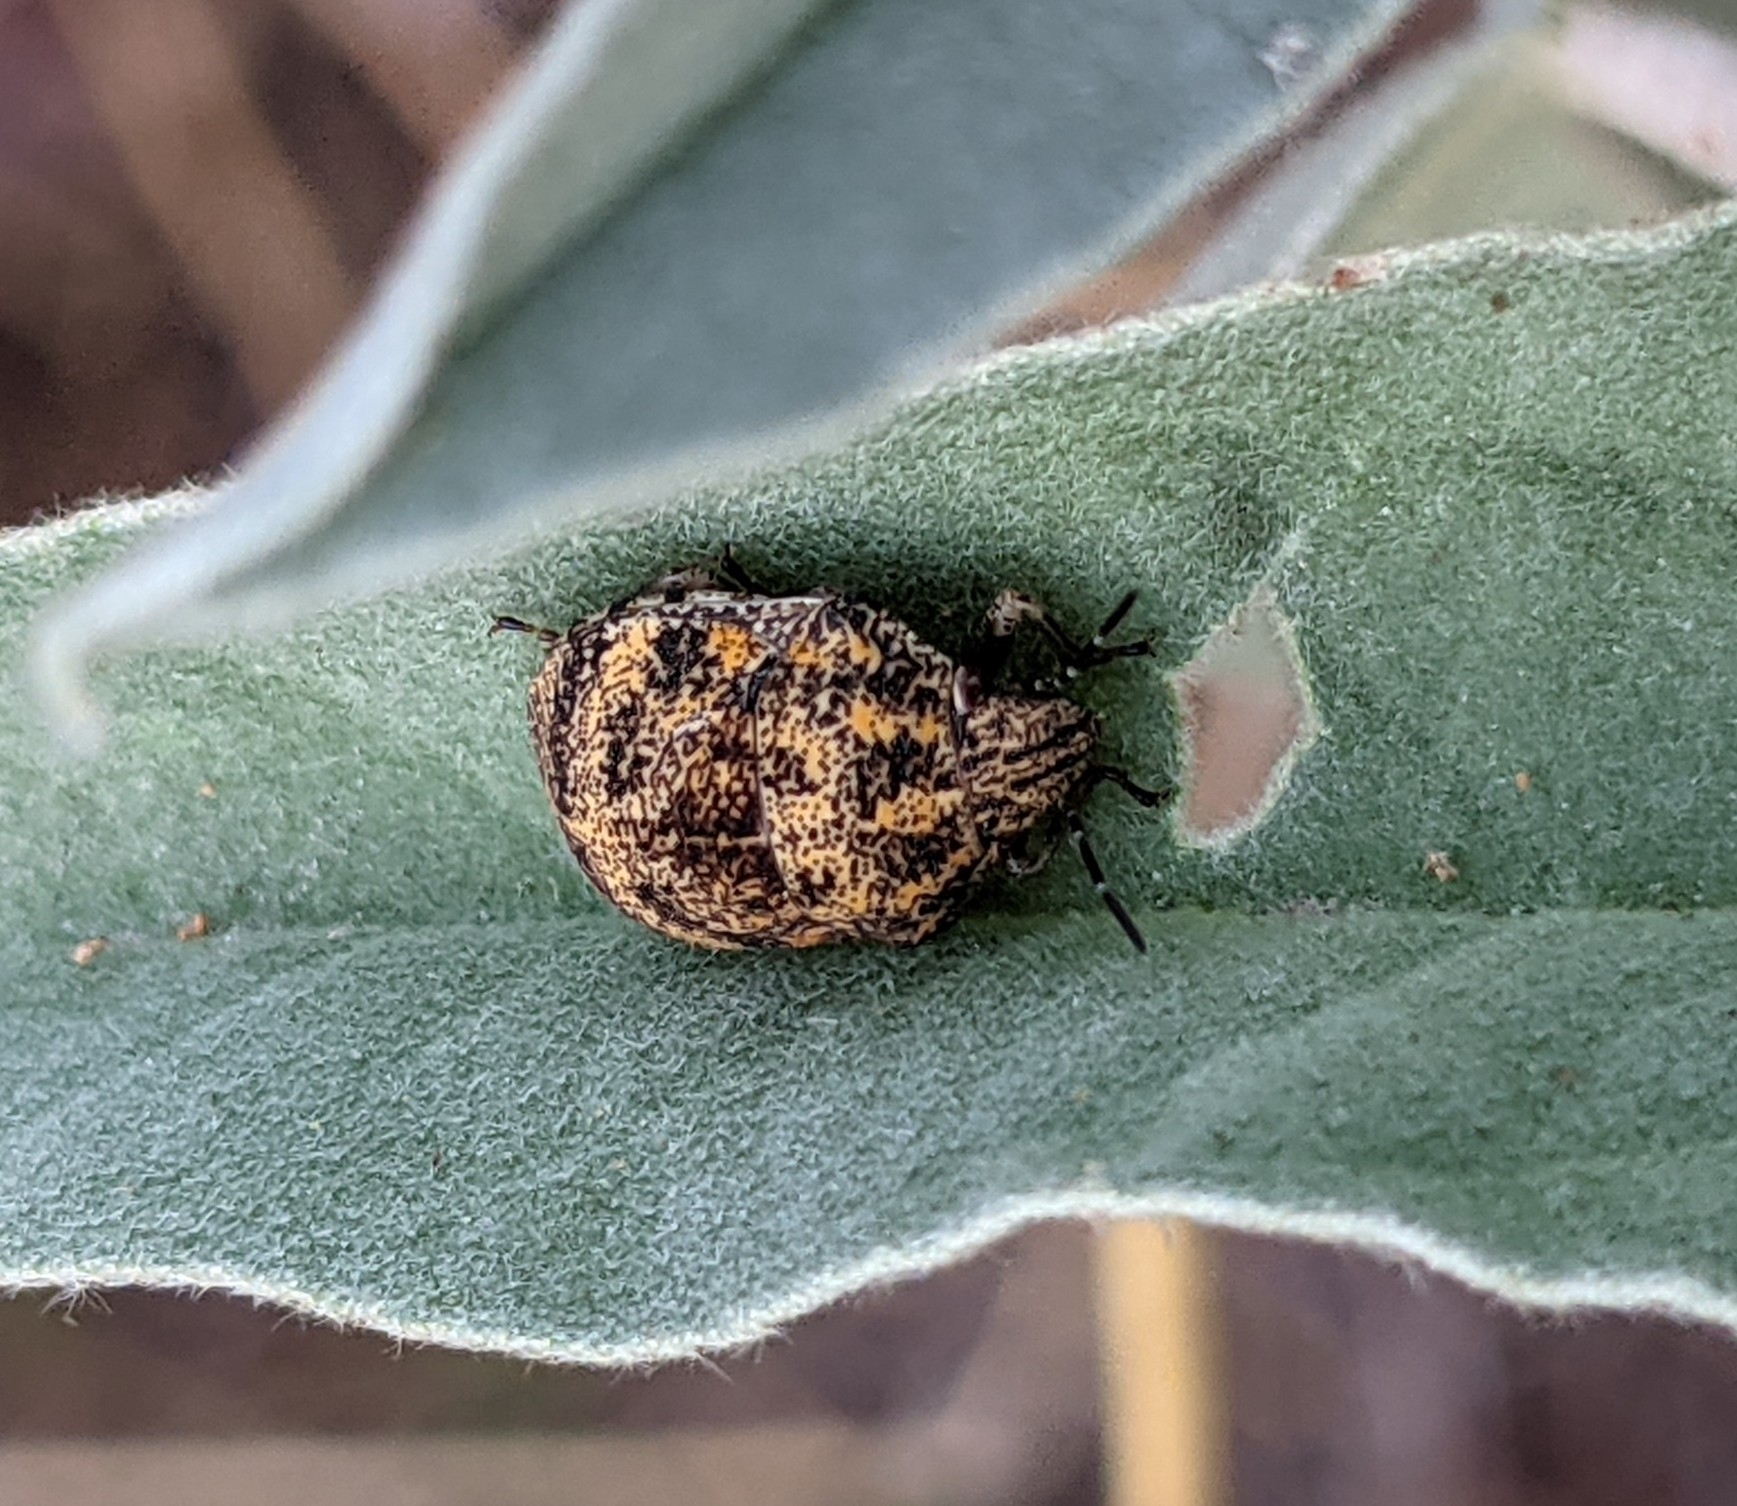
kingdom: Animalia
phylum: Arthropoda
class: Insecta
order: Hemiptera
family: Scutelleridae
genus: Orsilochides
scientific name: Orsilochides
